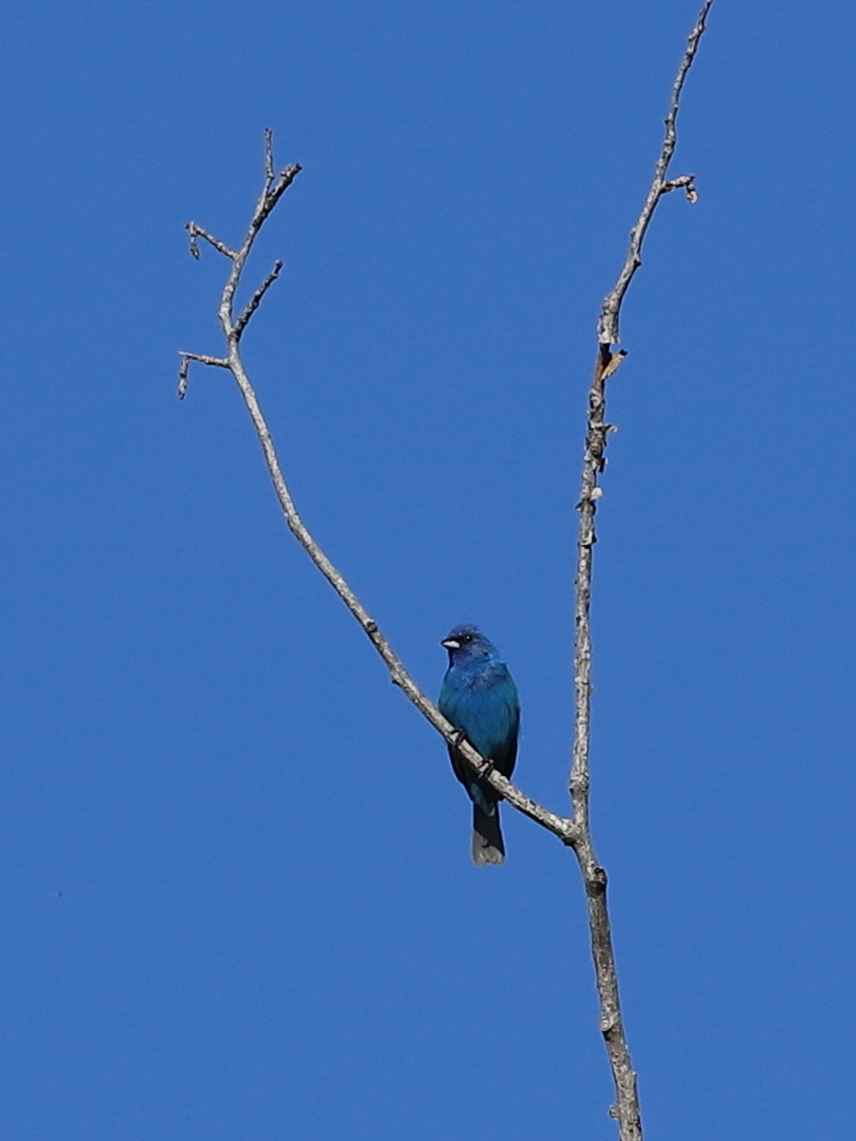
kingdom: Animalia
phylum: Chordata
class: Aves
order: Passeriformes
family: Cardinalidae
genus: Passerina
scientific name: Passerina cyanea
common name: Indigo bunting
